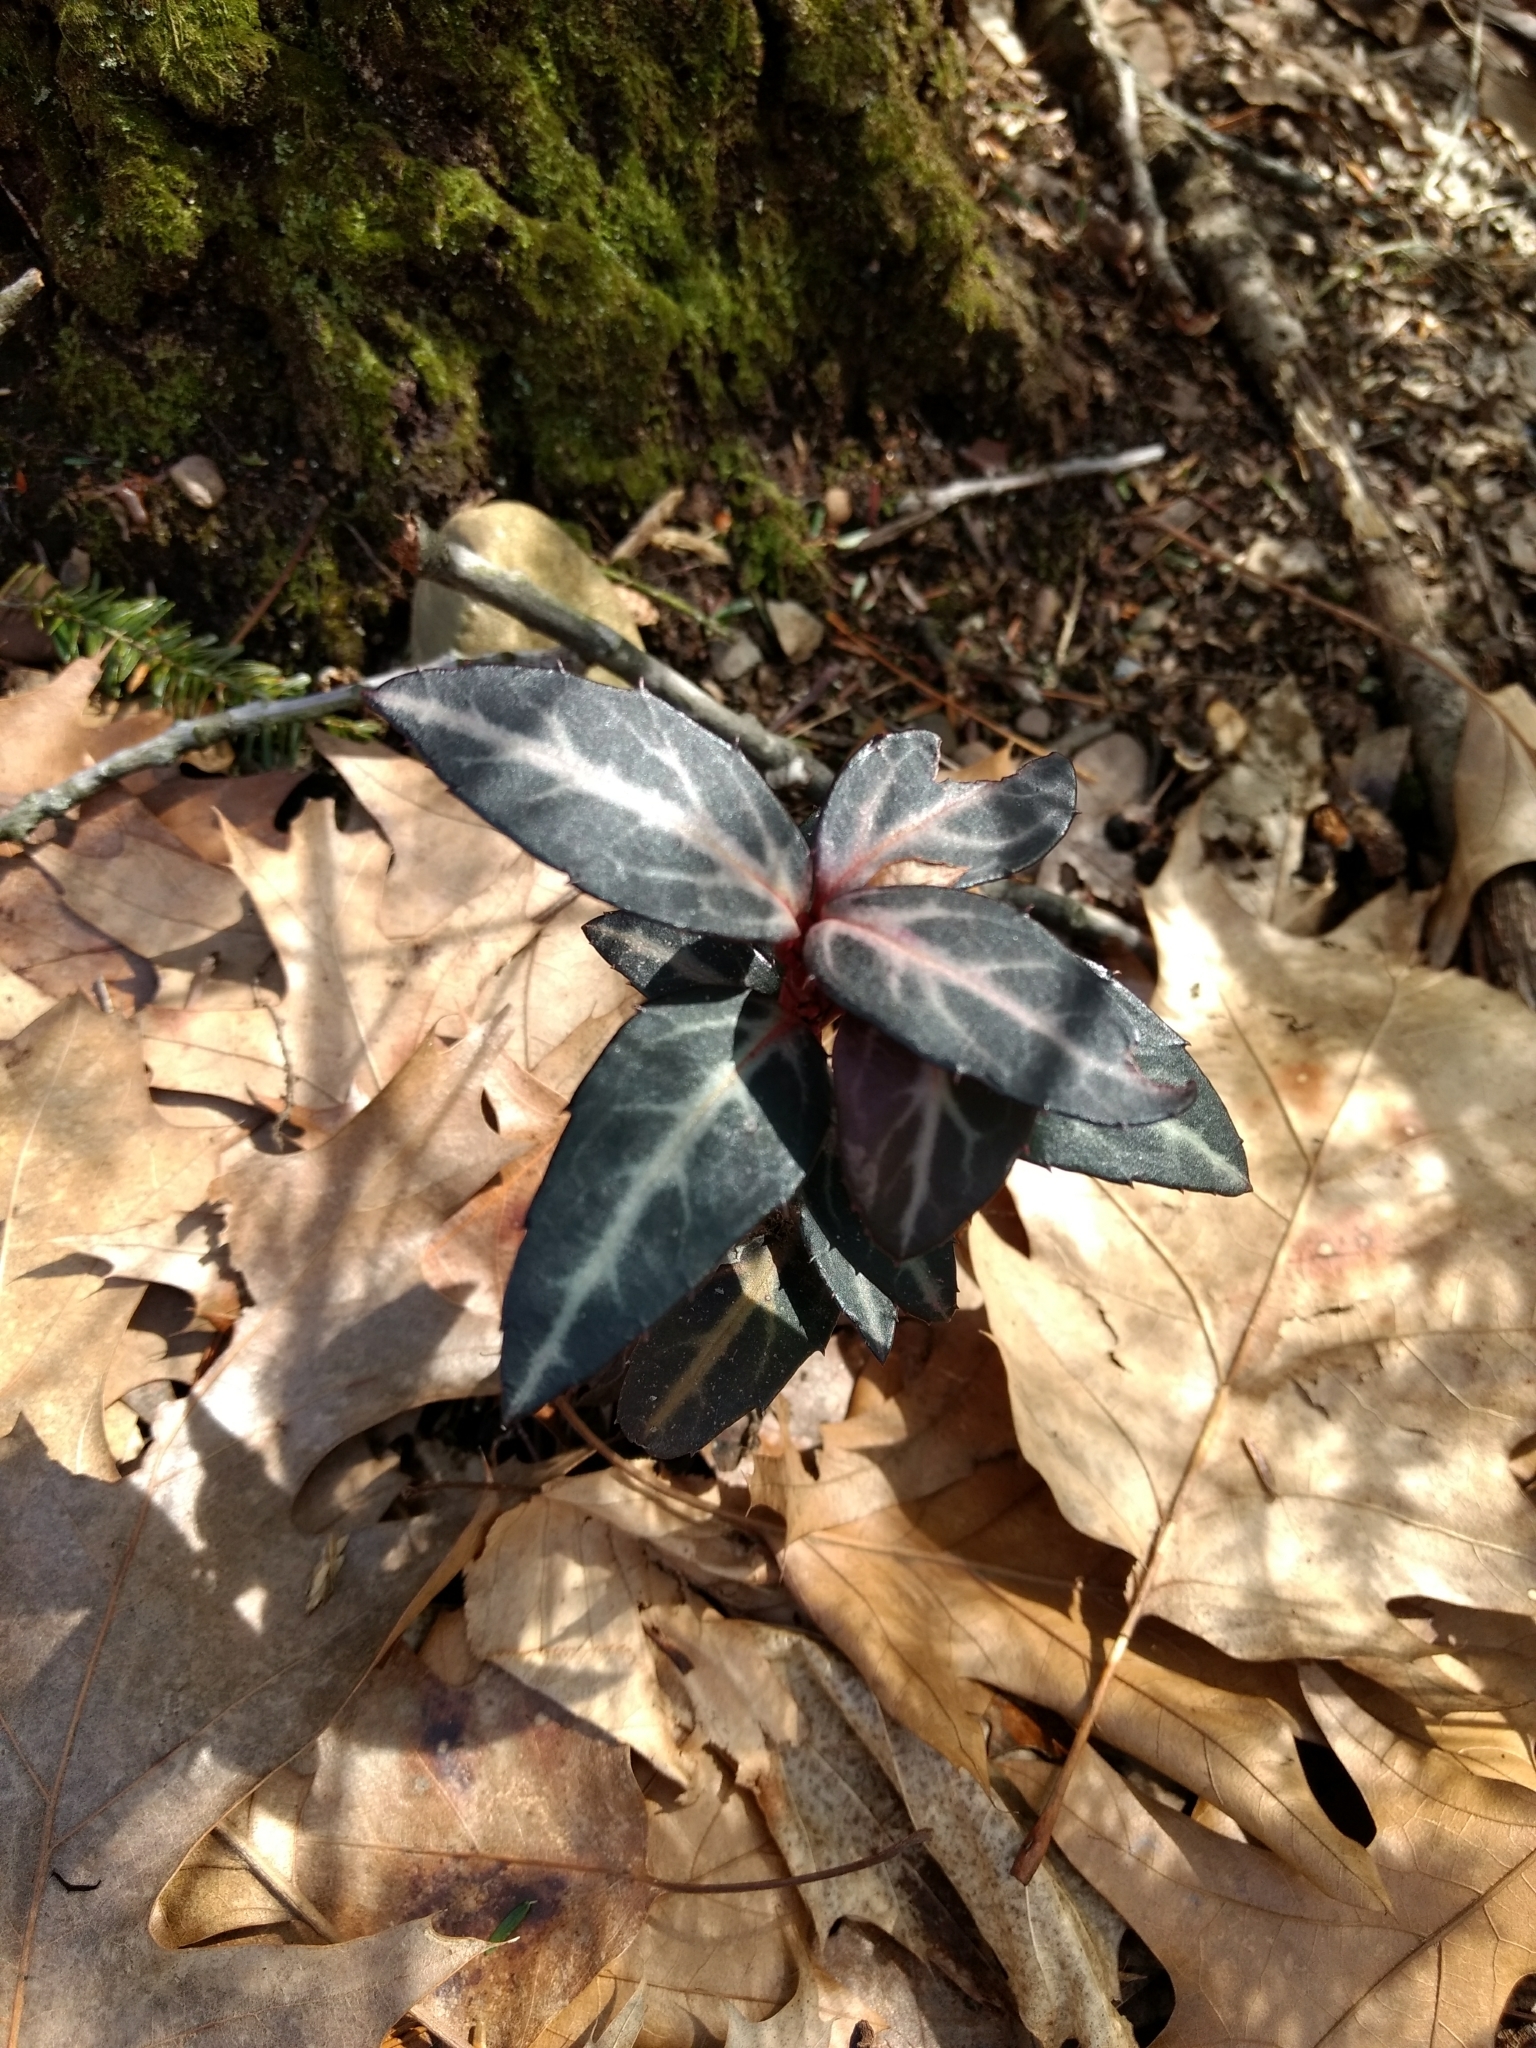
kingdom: Plantae
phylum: Tracheophyta
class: Magnoliopsida
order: Ericales
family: Ericaceae
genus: Chimaphila
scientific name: Chimaphila maculata
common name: Spotted pipsissewa
